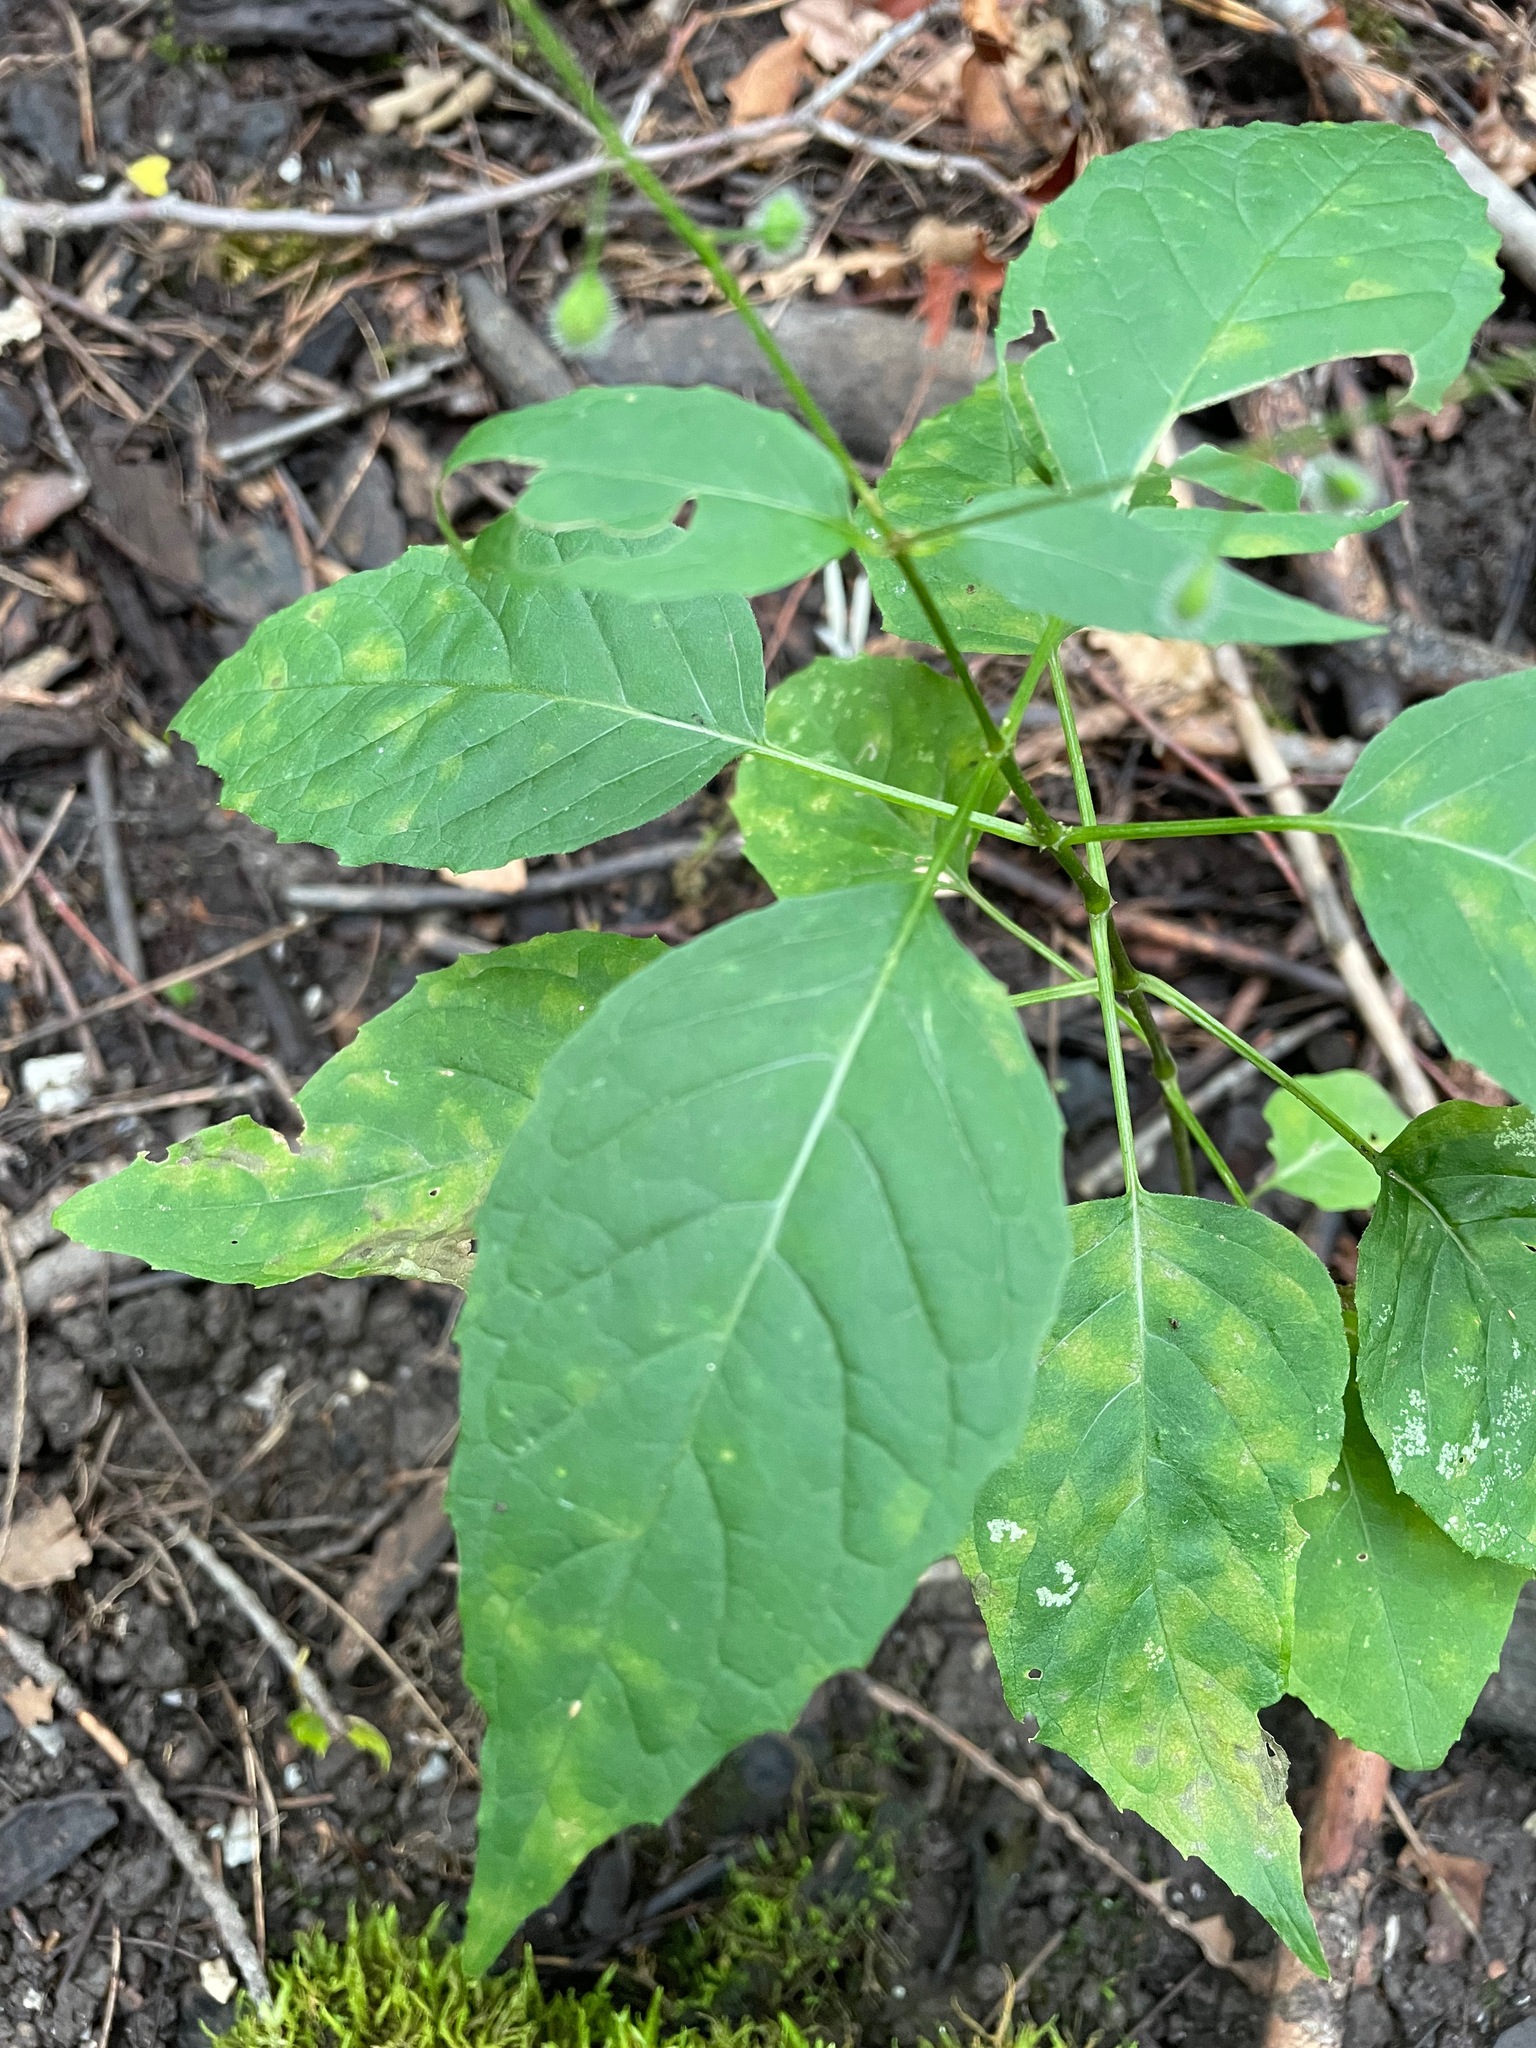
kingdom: Plantae
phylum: Tracheophyta
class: Magnoliopsida
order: Myrtales
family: Onagraceae
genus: Circaea
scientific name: Circaea canadensis
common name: Broad-leaved enchanter's nightshade
